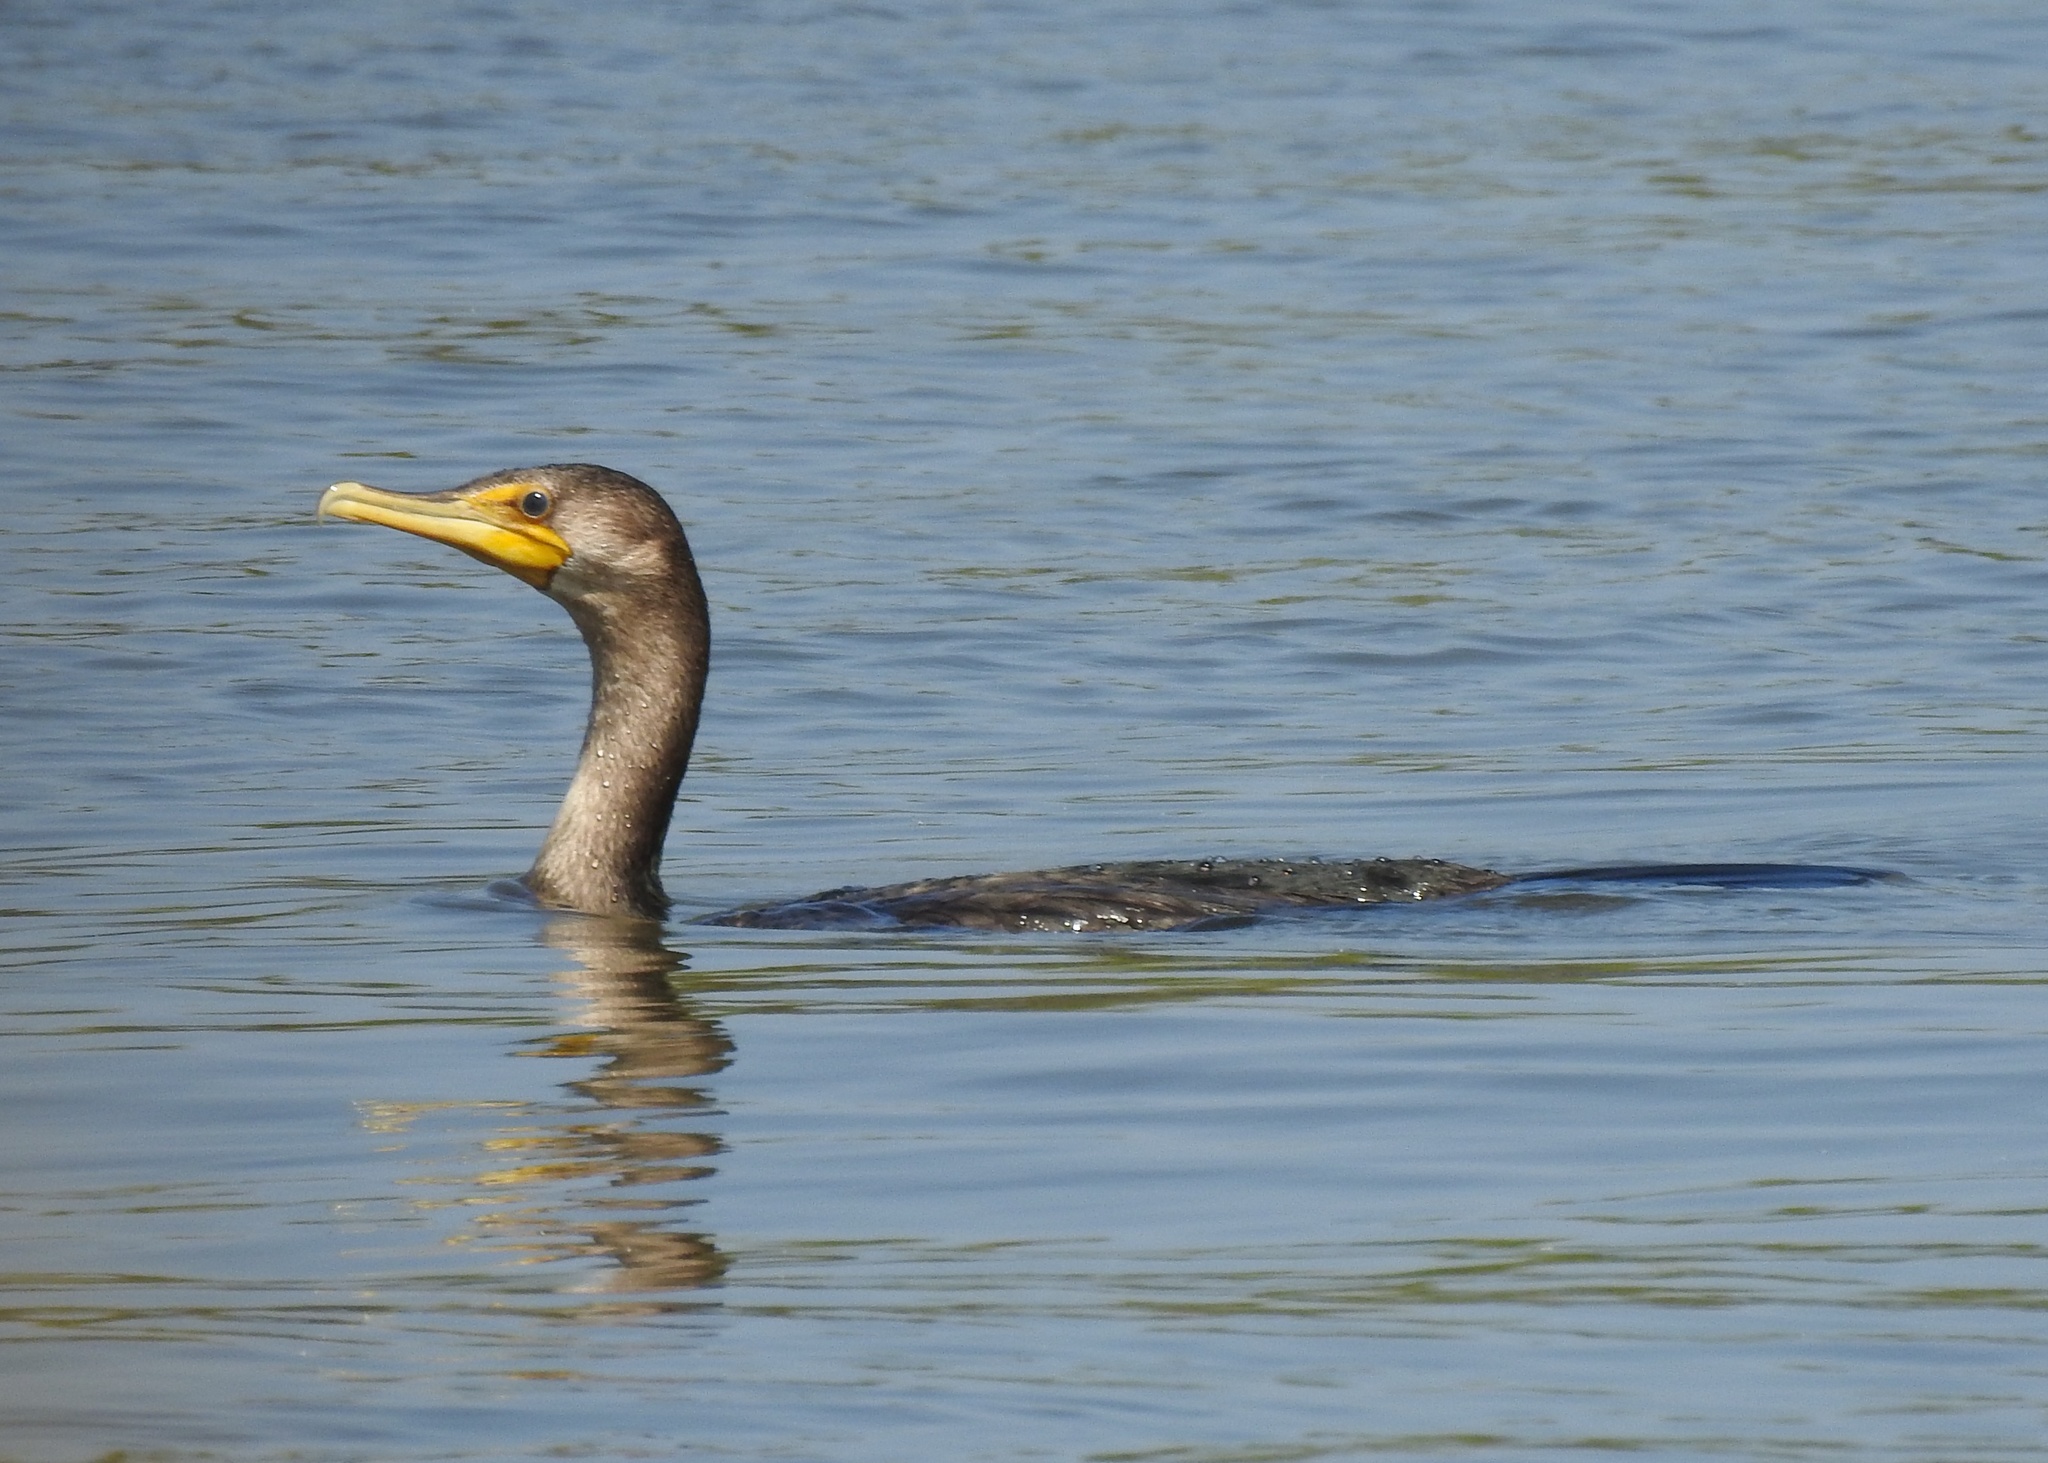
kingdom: Animalia
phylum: Chordata
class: Aves
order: Suliformes
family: Phalacrocoracidae
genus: Phalacrocorax
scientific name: Phalacrocorax auritus
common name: Double-crested cormorant
